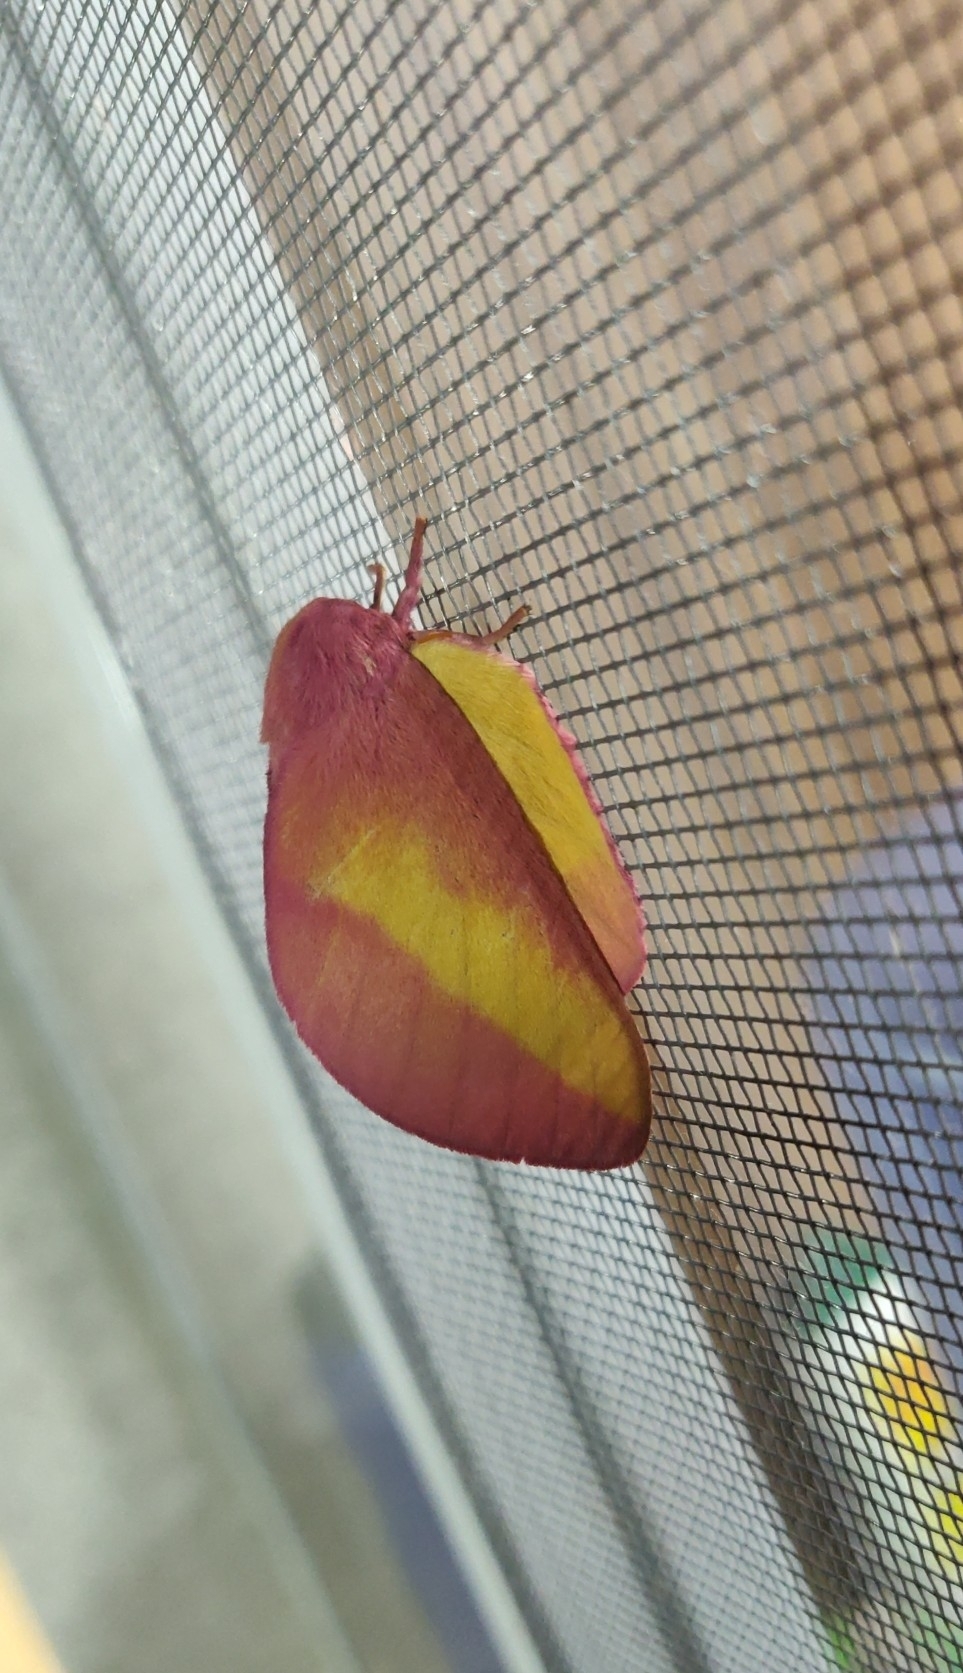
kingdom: Animalia
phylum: Arthropoda
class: Insecta
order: Lepidoptera
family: Saturniidae
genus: Psilopygida
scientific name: Psilopygida walkeri
